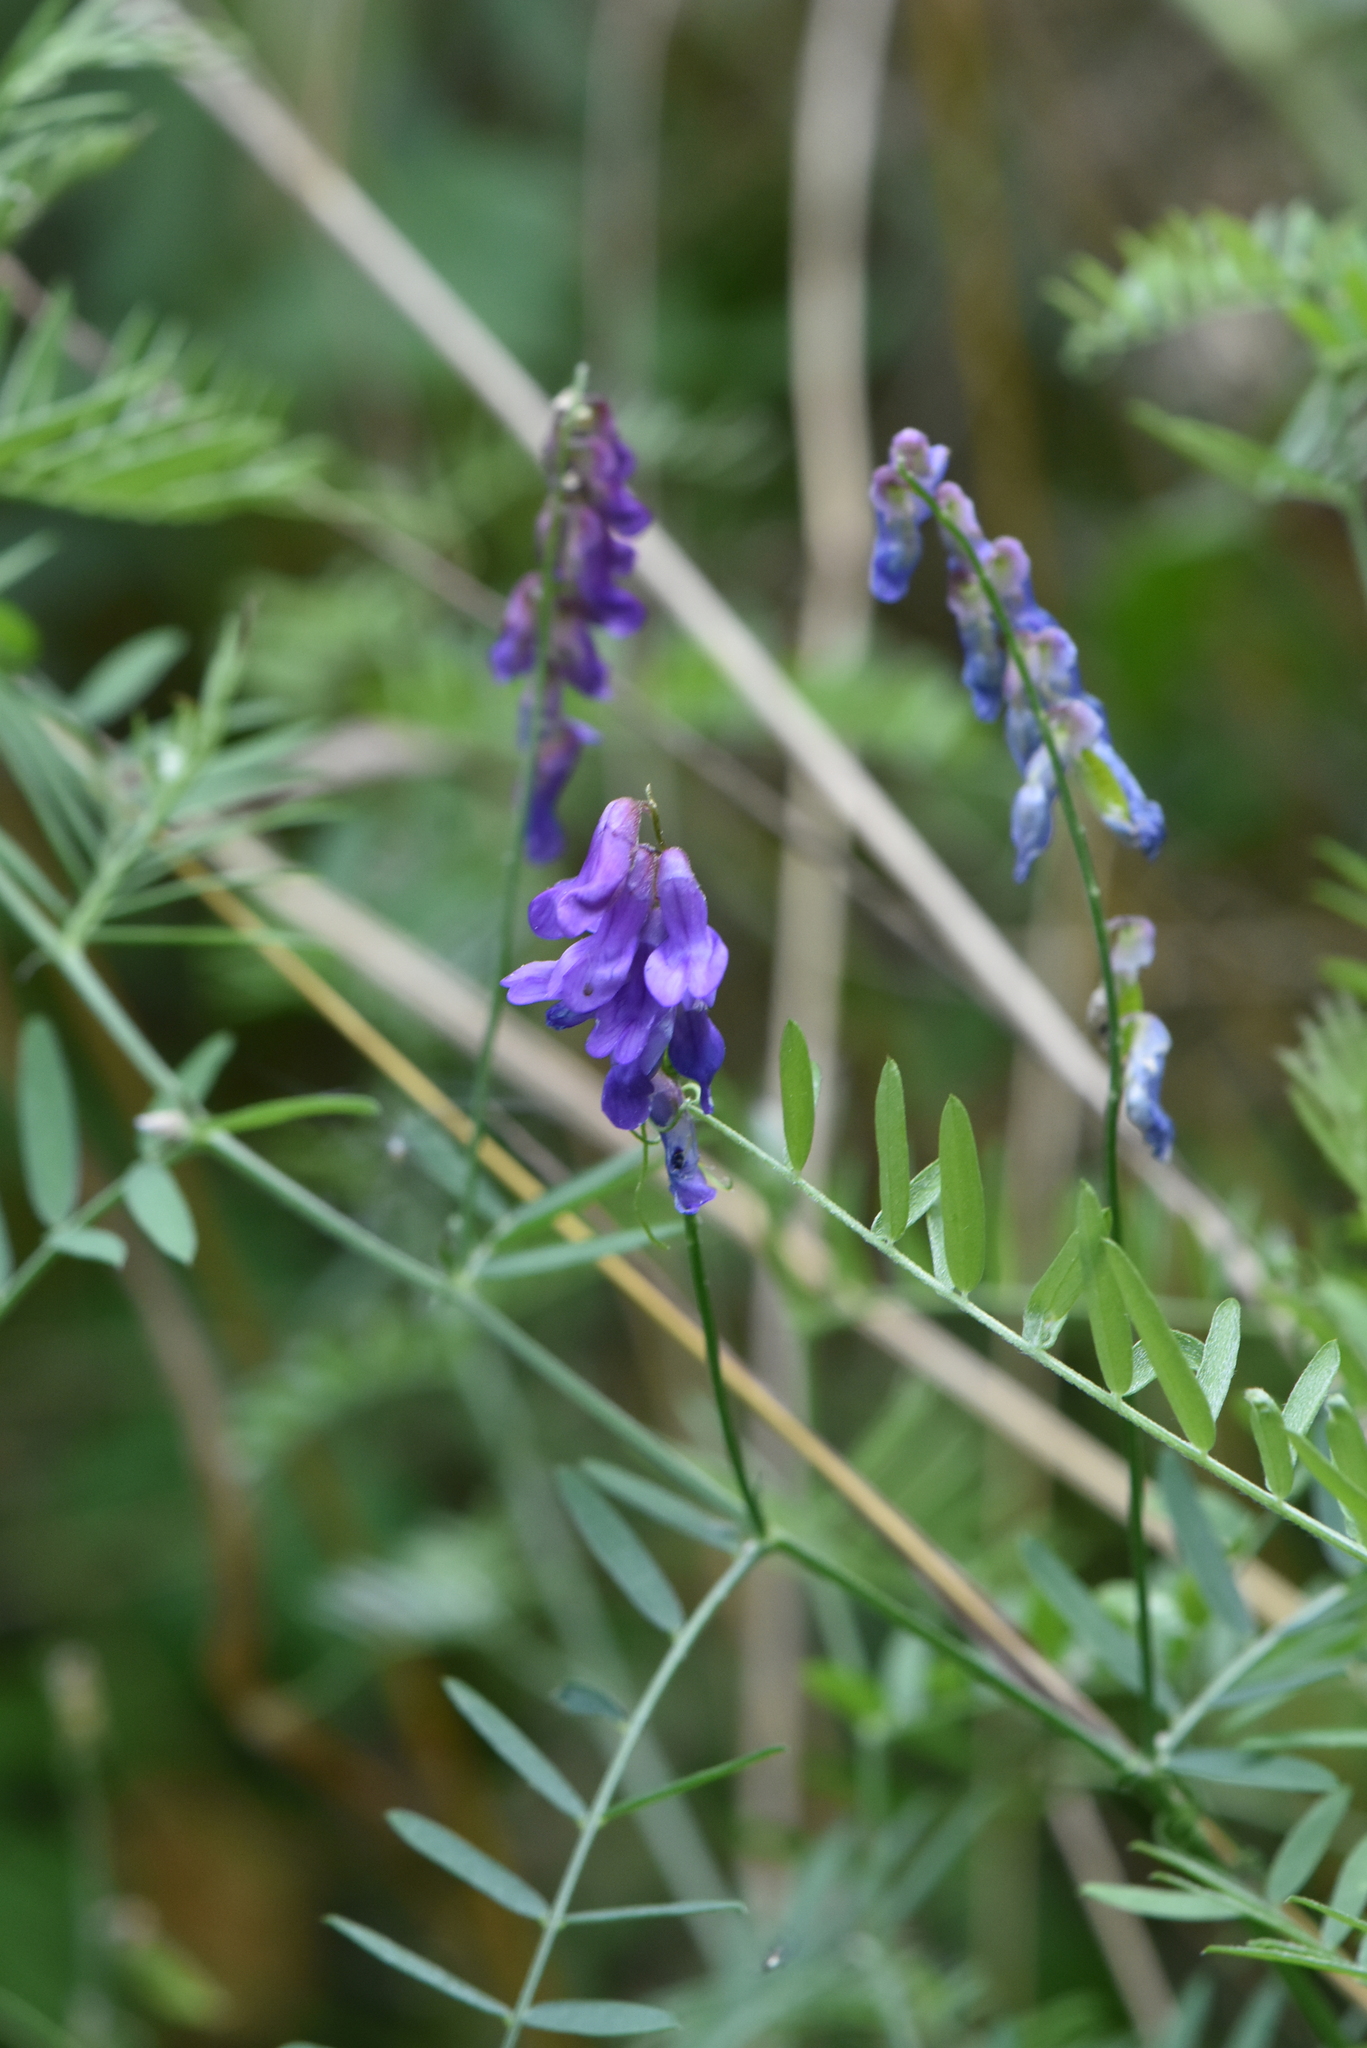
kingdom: Plantae
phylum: Tracheophyta
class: Magnoliopsida
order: Fabales
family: Fabaceae
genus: Vicia
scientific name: Vicia cracca
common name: Bird vetch
